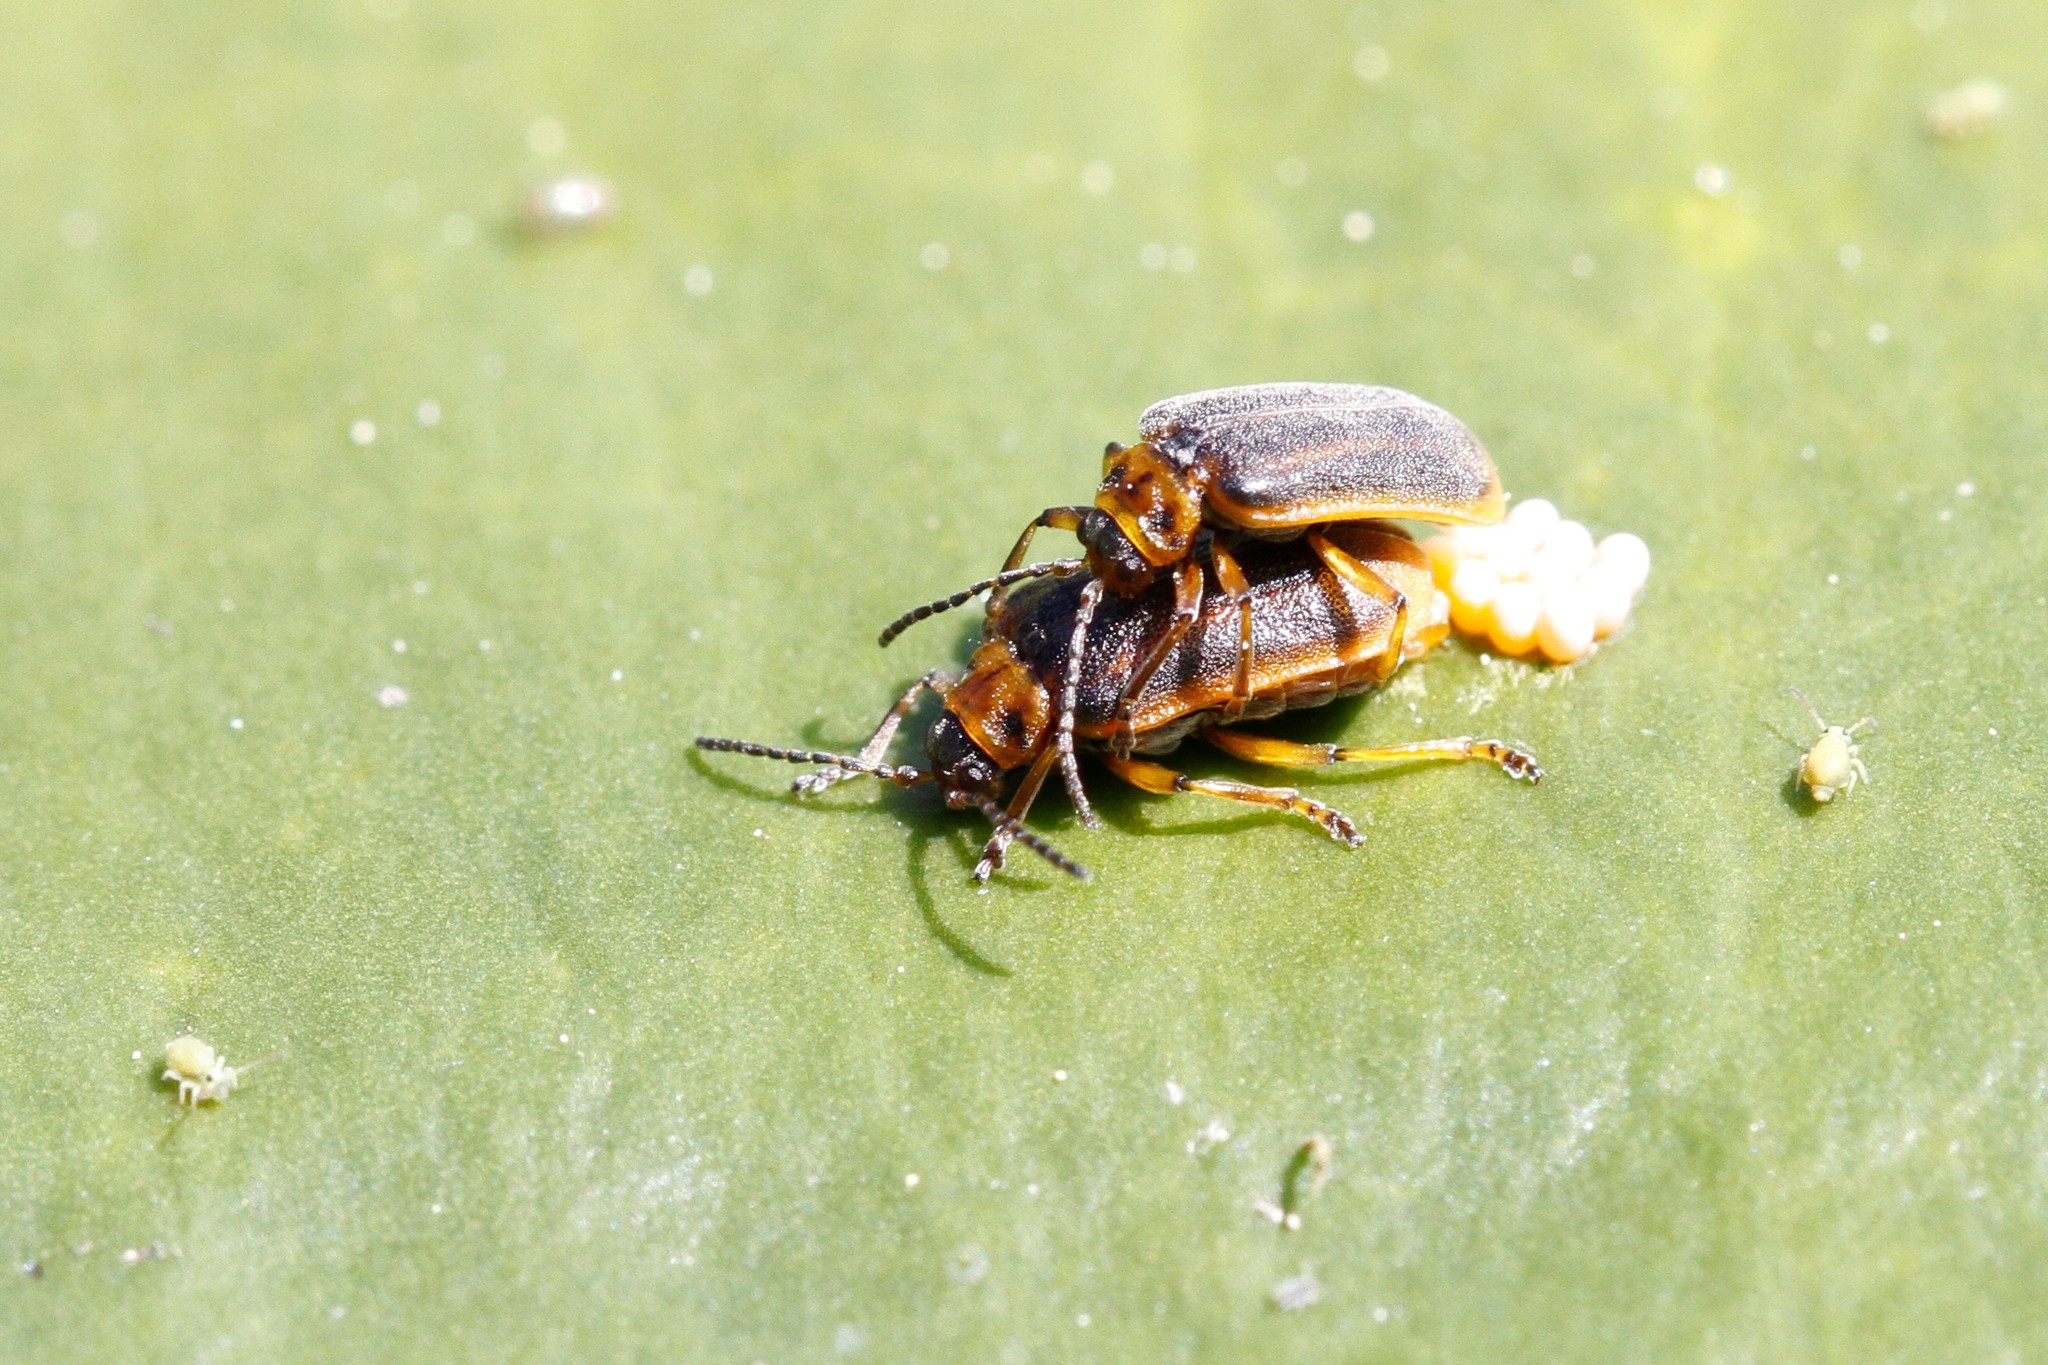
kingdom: Animalia
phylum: Arthropoda
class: Insecta
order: Coleoptera
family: Chrysomelidae
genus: Galerucella
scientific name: Galerucella nymphaeae
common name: Leaf beetle
